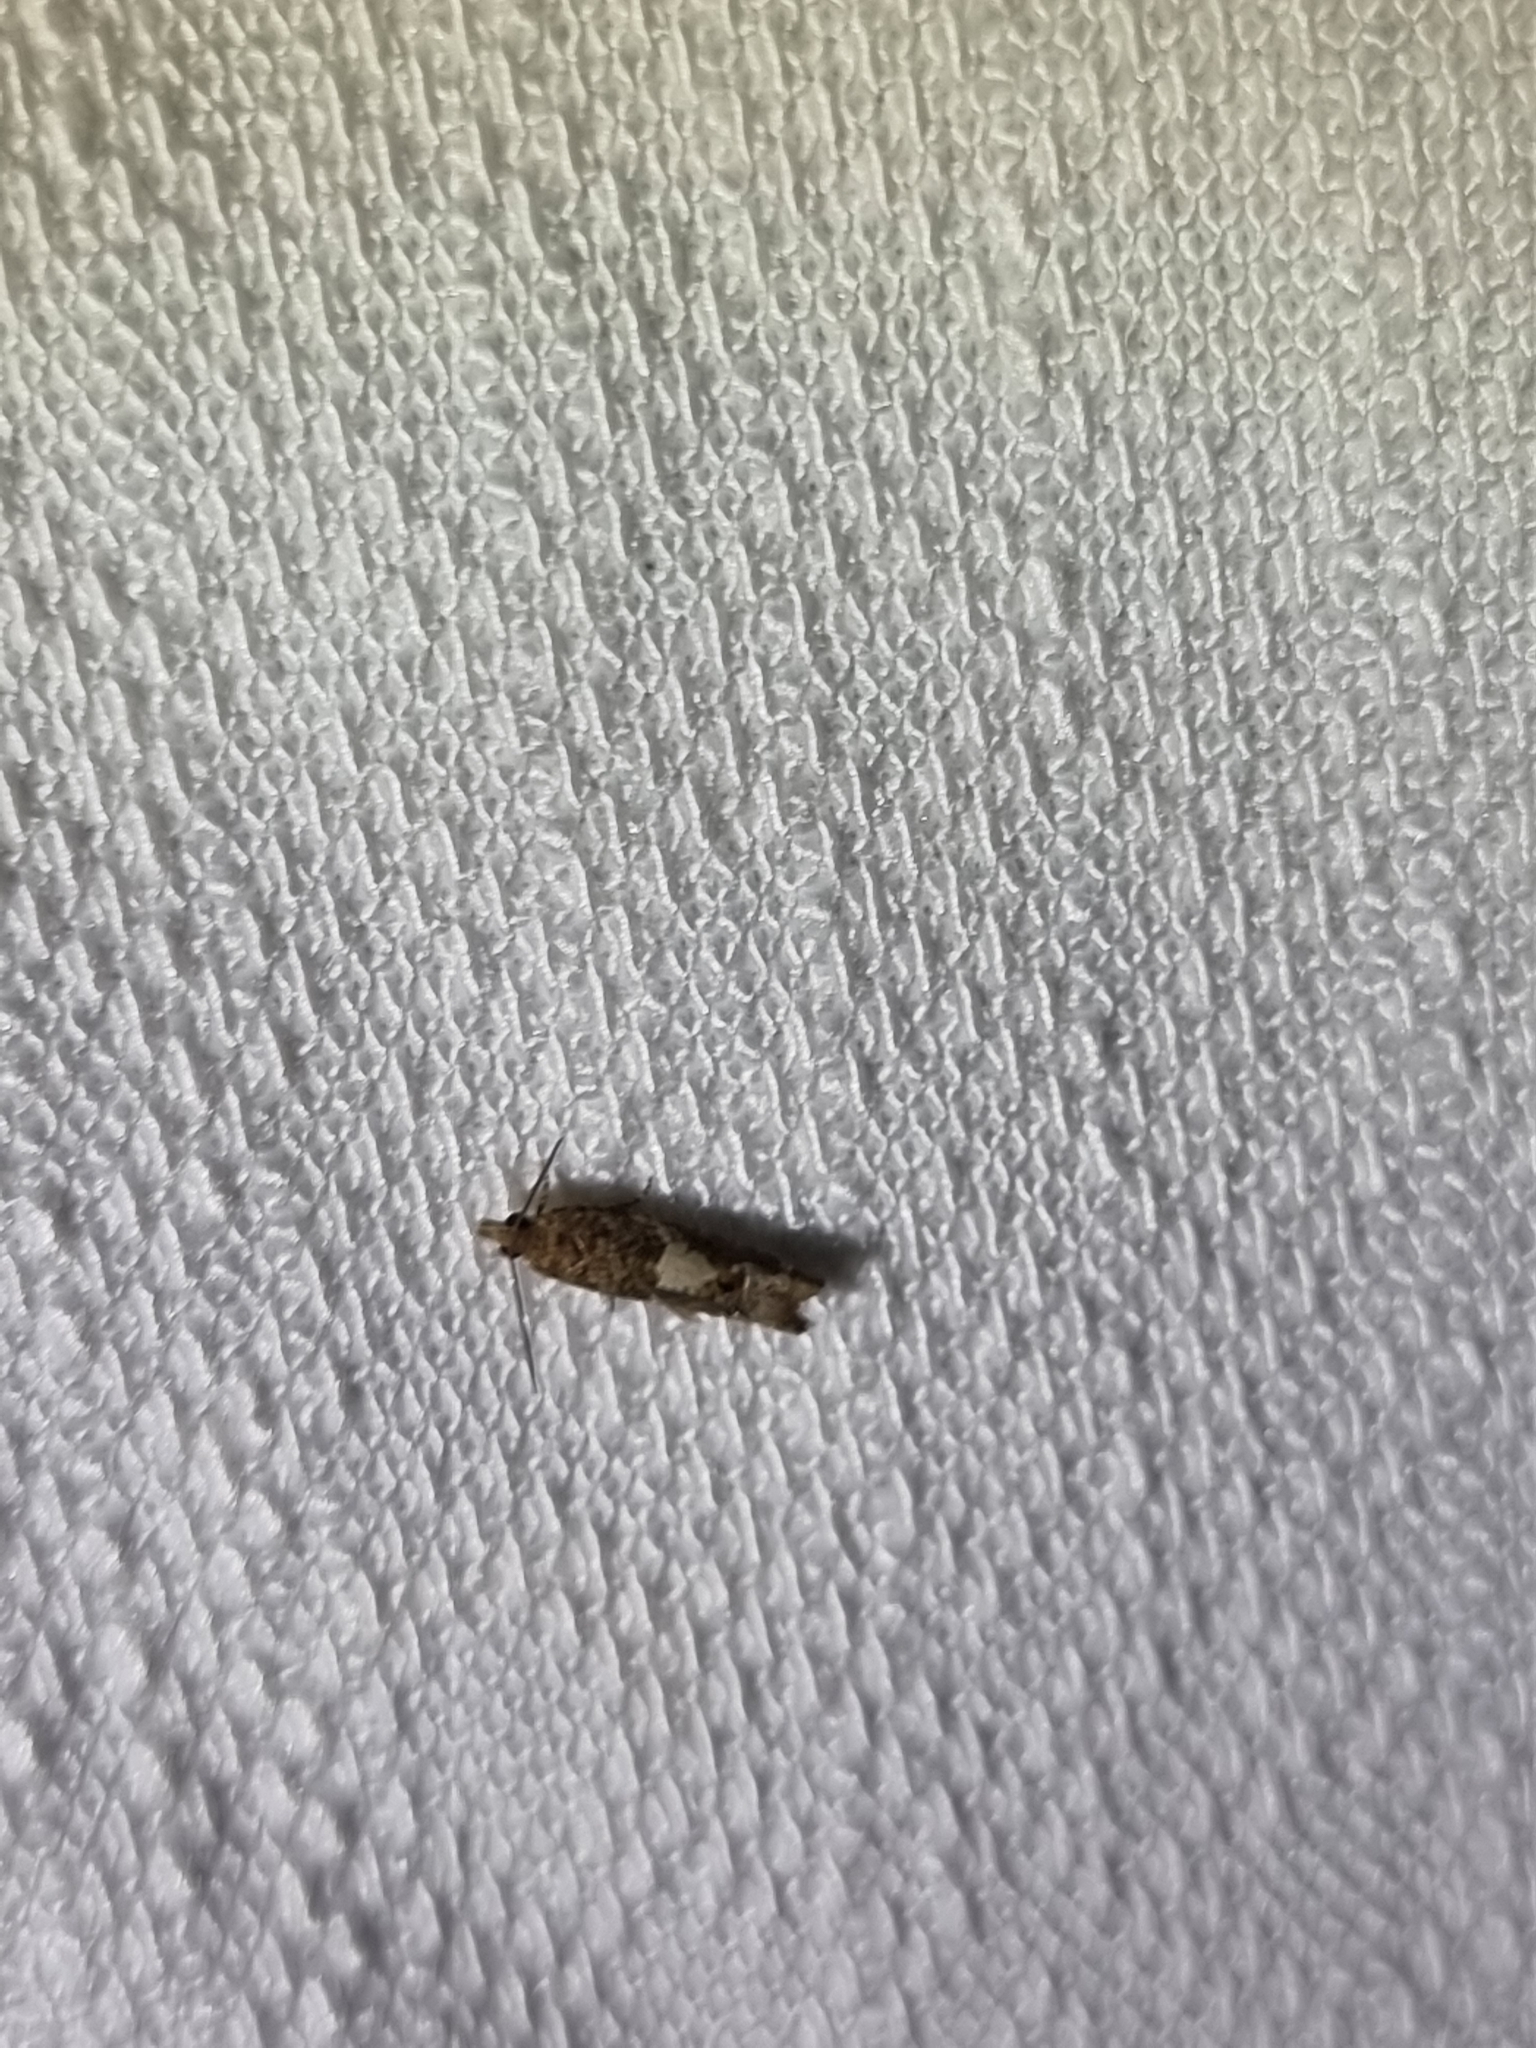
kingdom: Animalia
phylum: Arthropoda
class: Insecta
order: Lepidoptera
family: Tortricidae
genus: Crocidosema
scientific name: Crocidosema plebejana
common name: Southern bell
